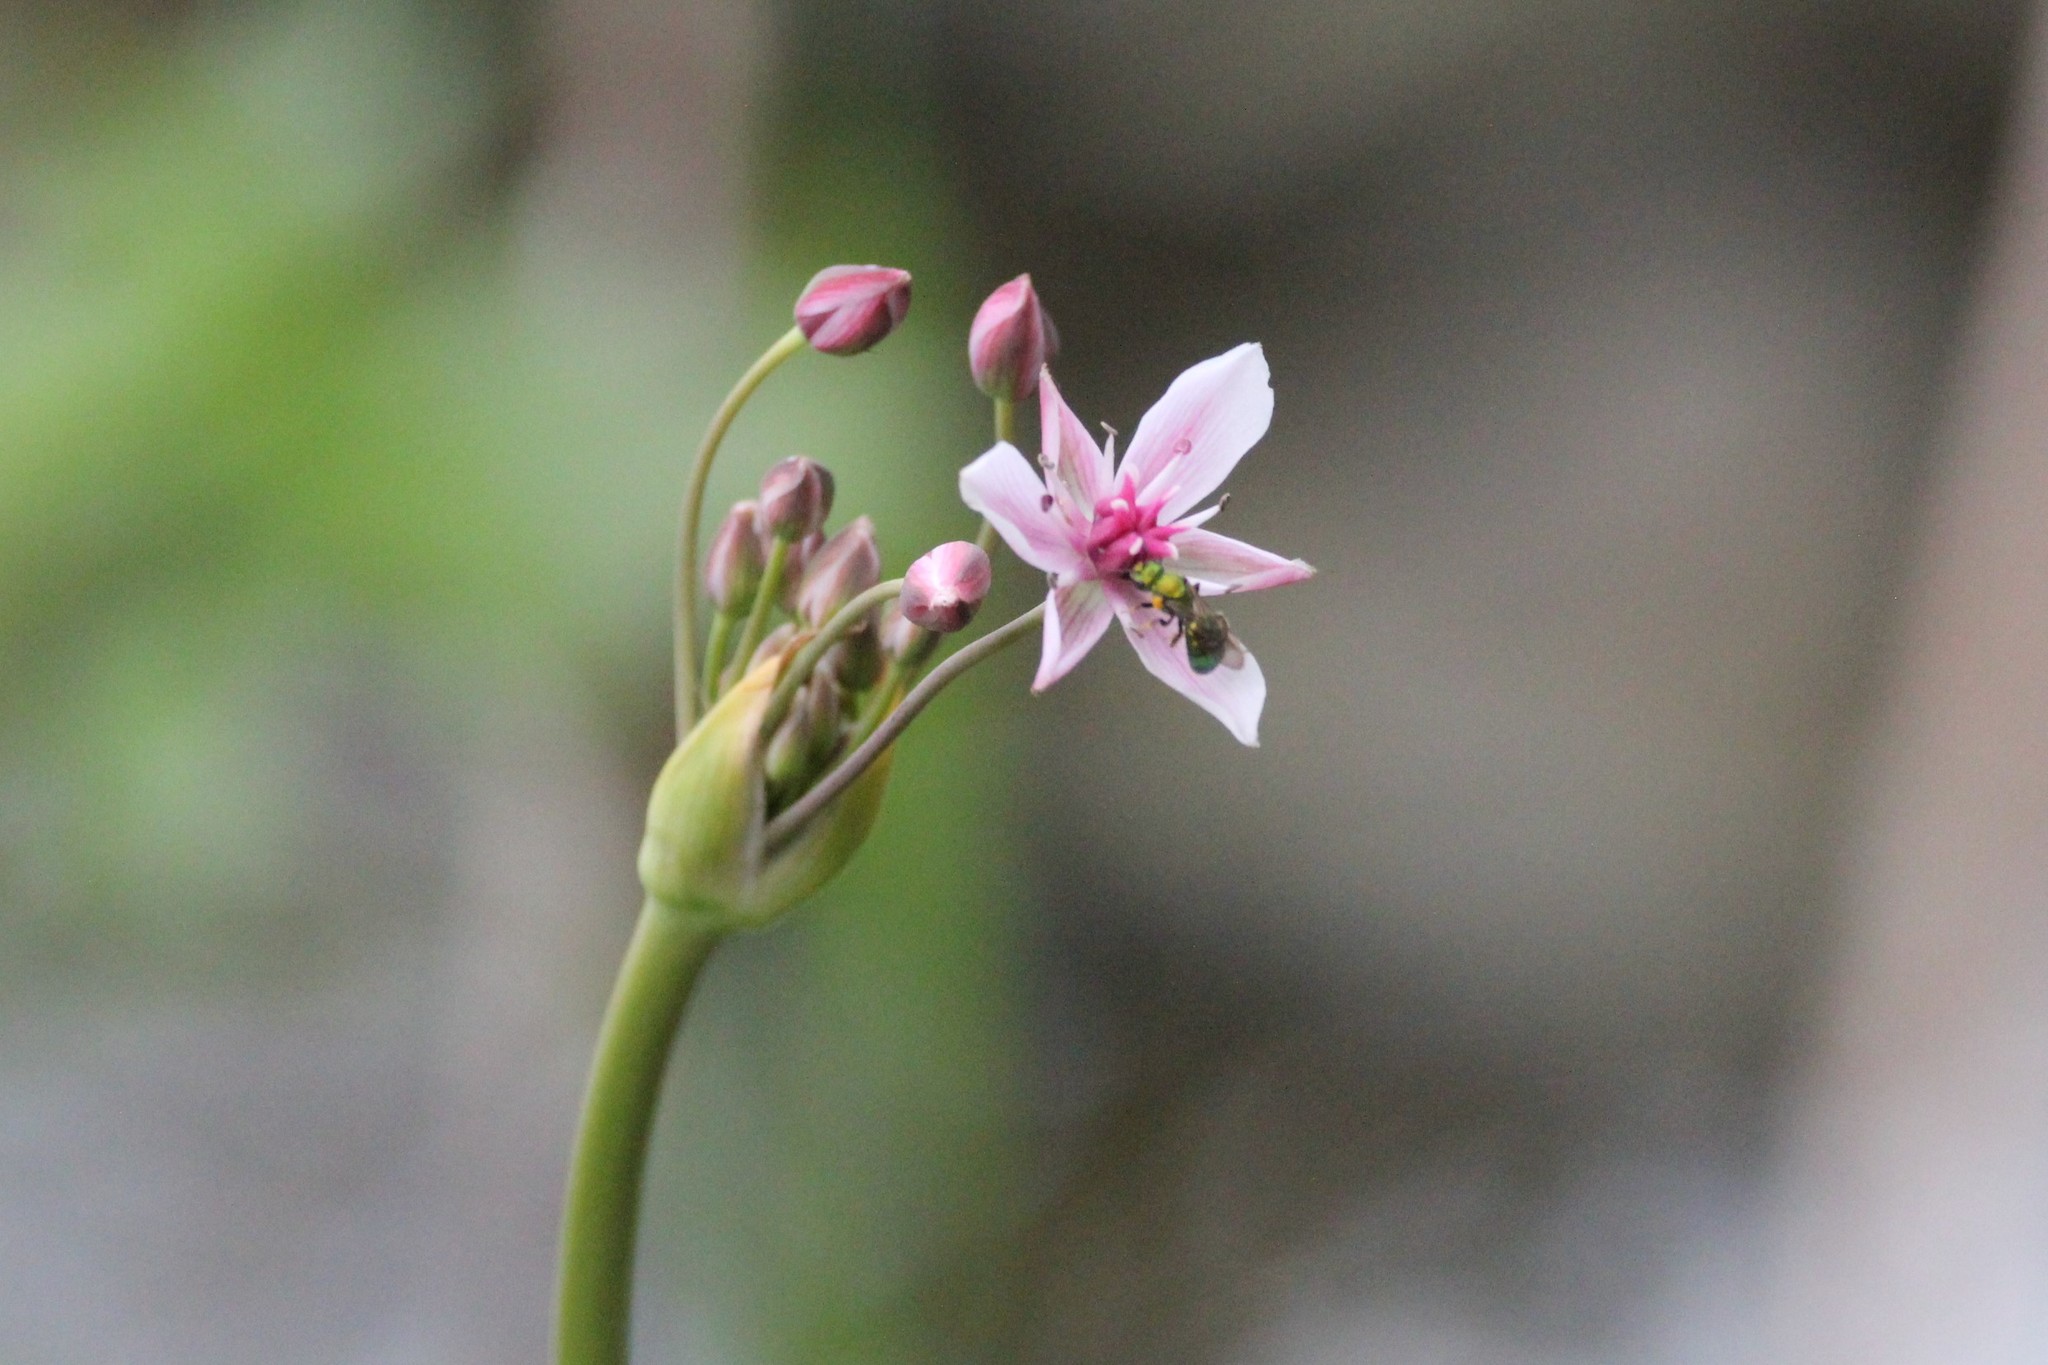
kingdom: Plantae
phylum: Tracheophyta
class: Liliopsida
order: Alismatales
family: Butomaceae
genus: Butomus
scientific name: Butomus umbellatus
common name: Flowering-rush
